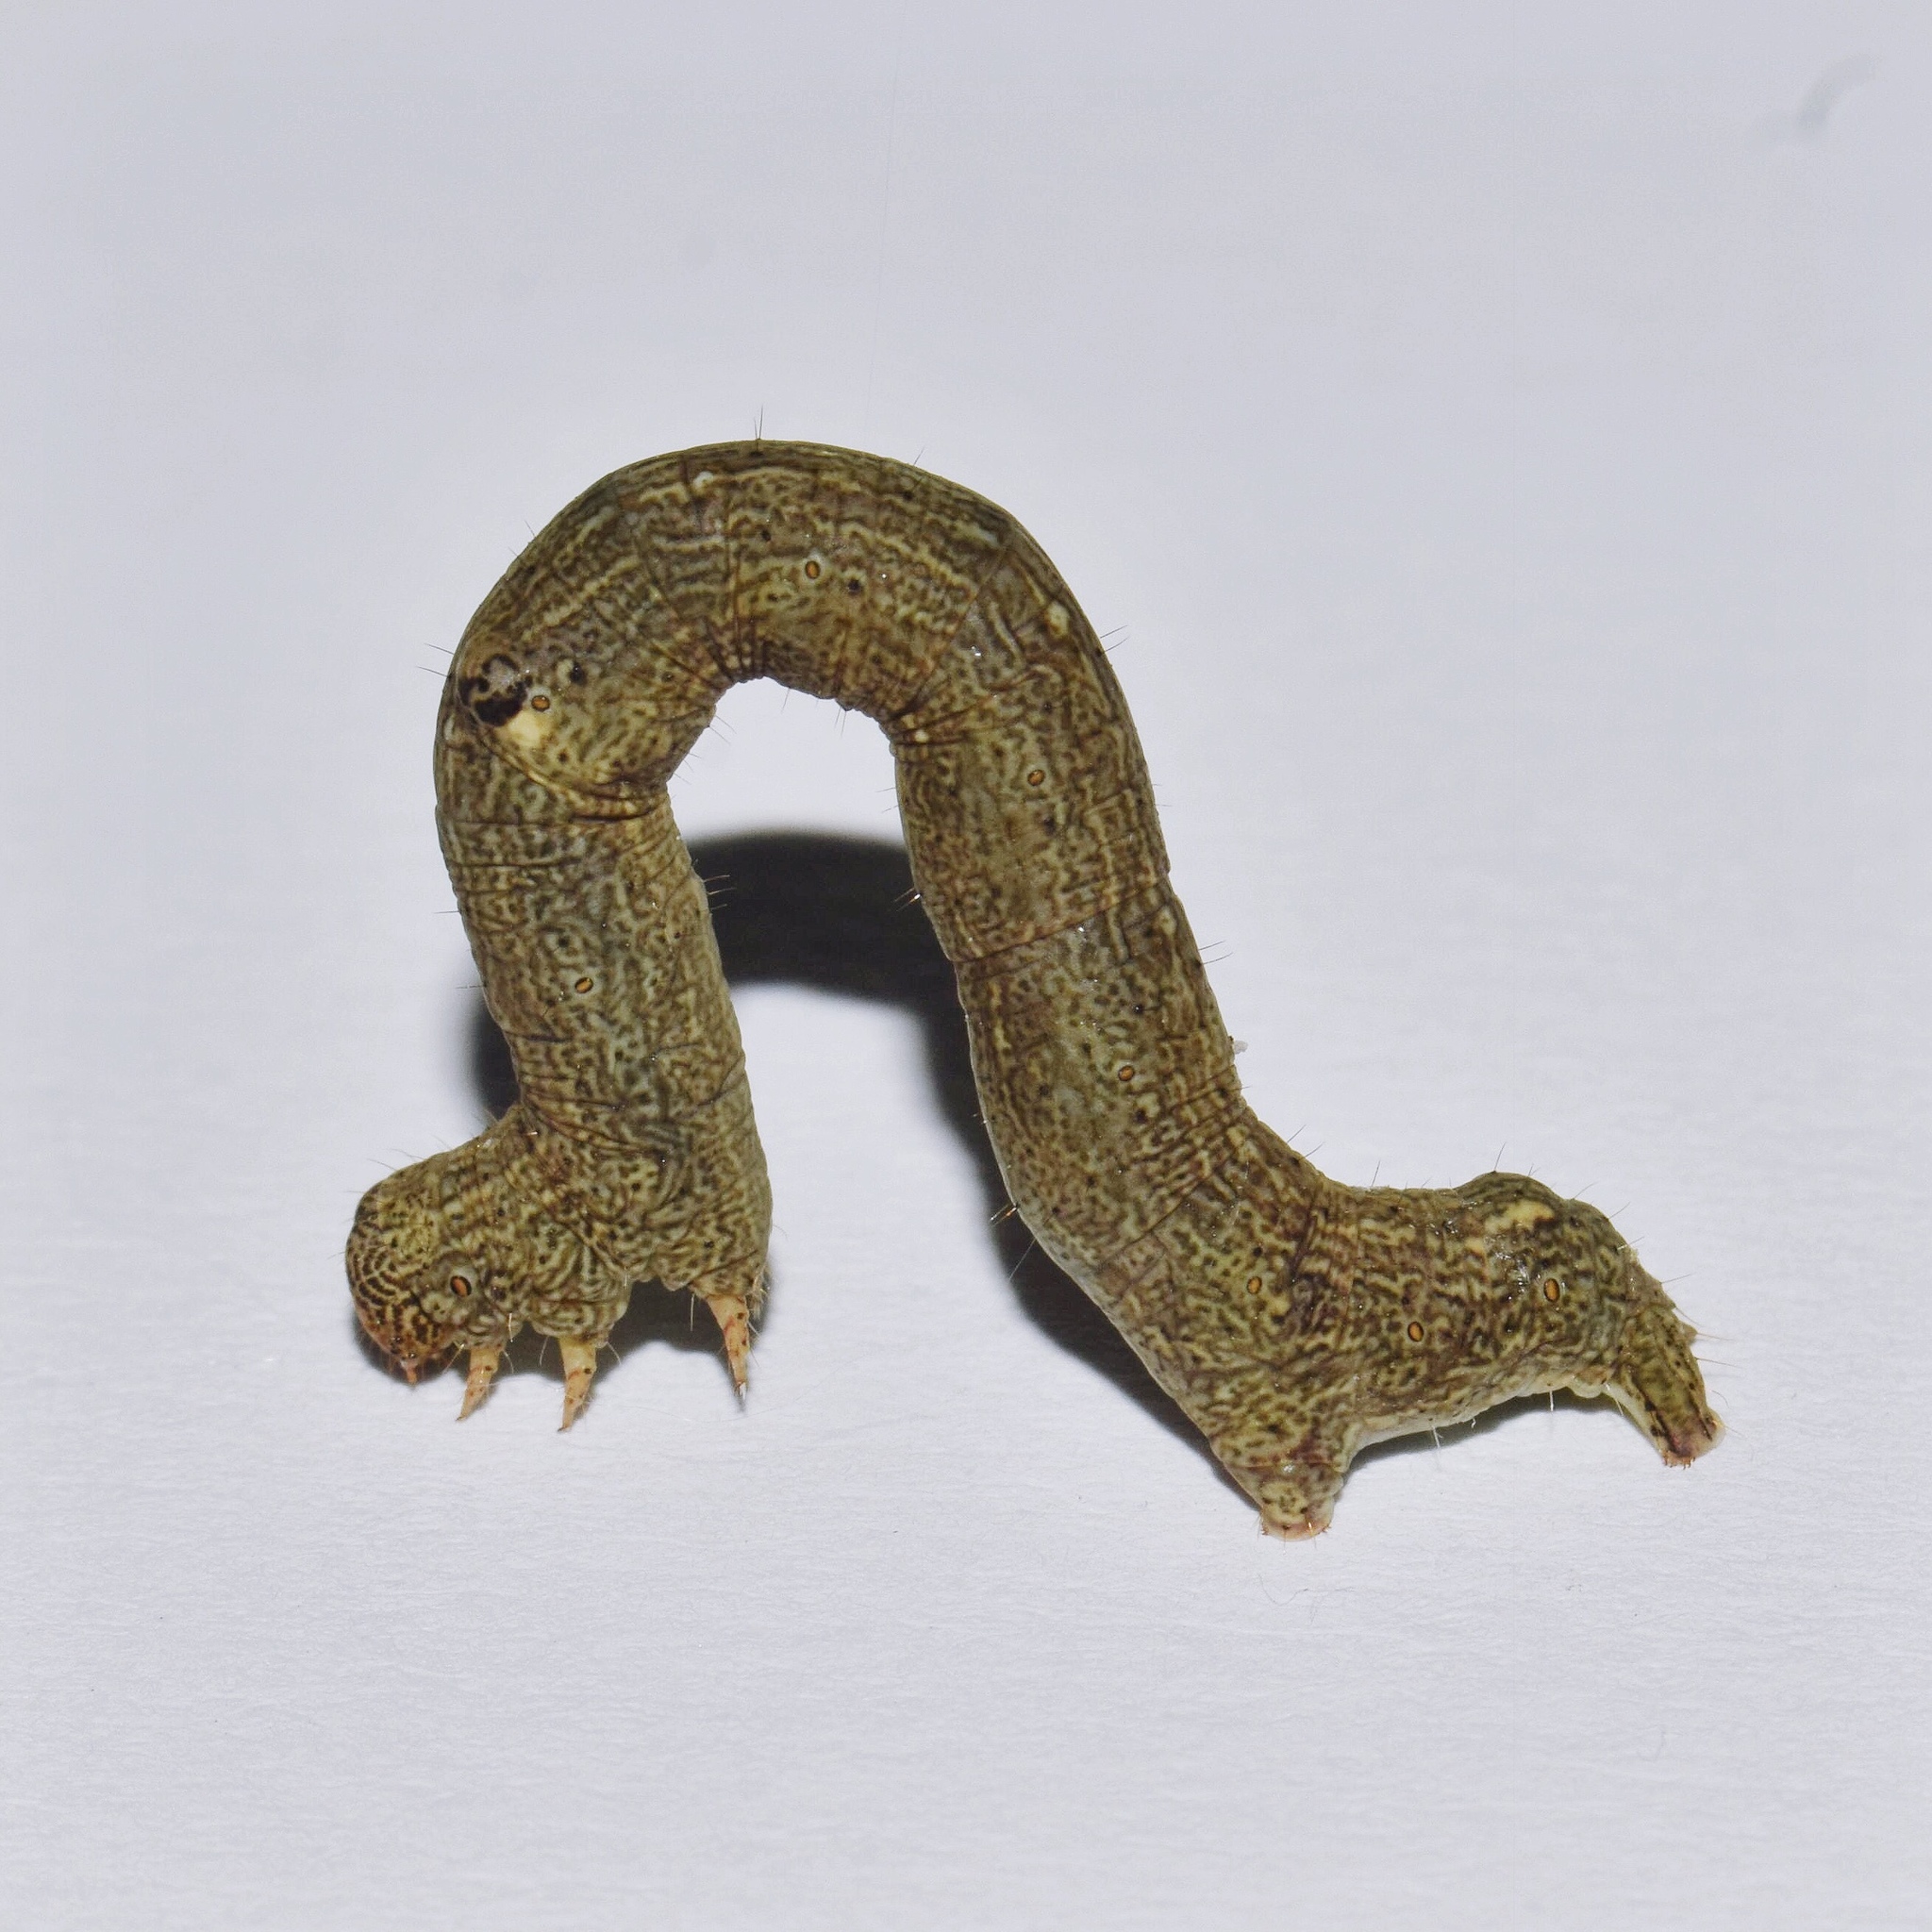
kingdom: Animalia
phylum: Arthropoda
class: Insecta
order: Lepidoptera
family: Geometridae
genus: Cleora
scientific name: Cleora munda
